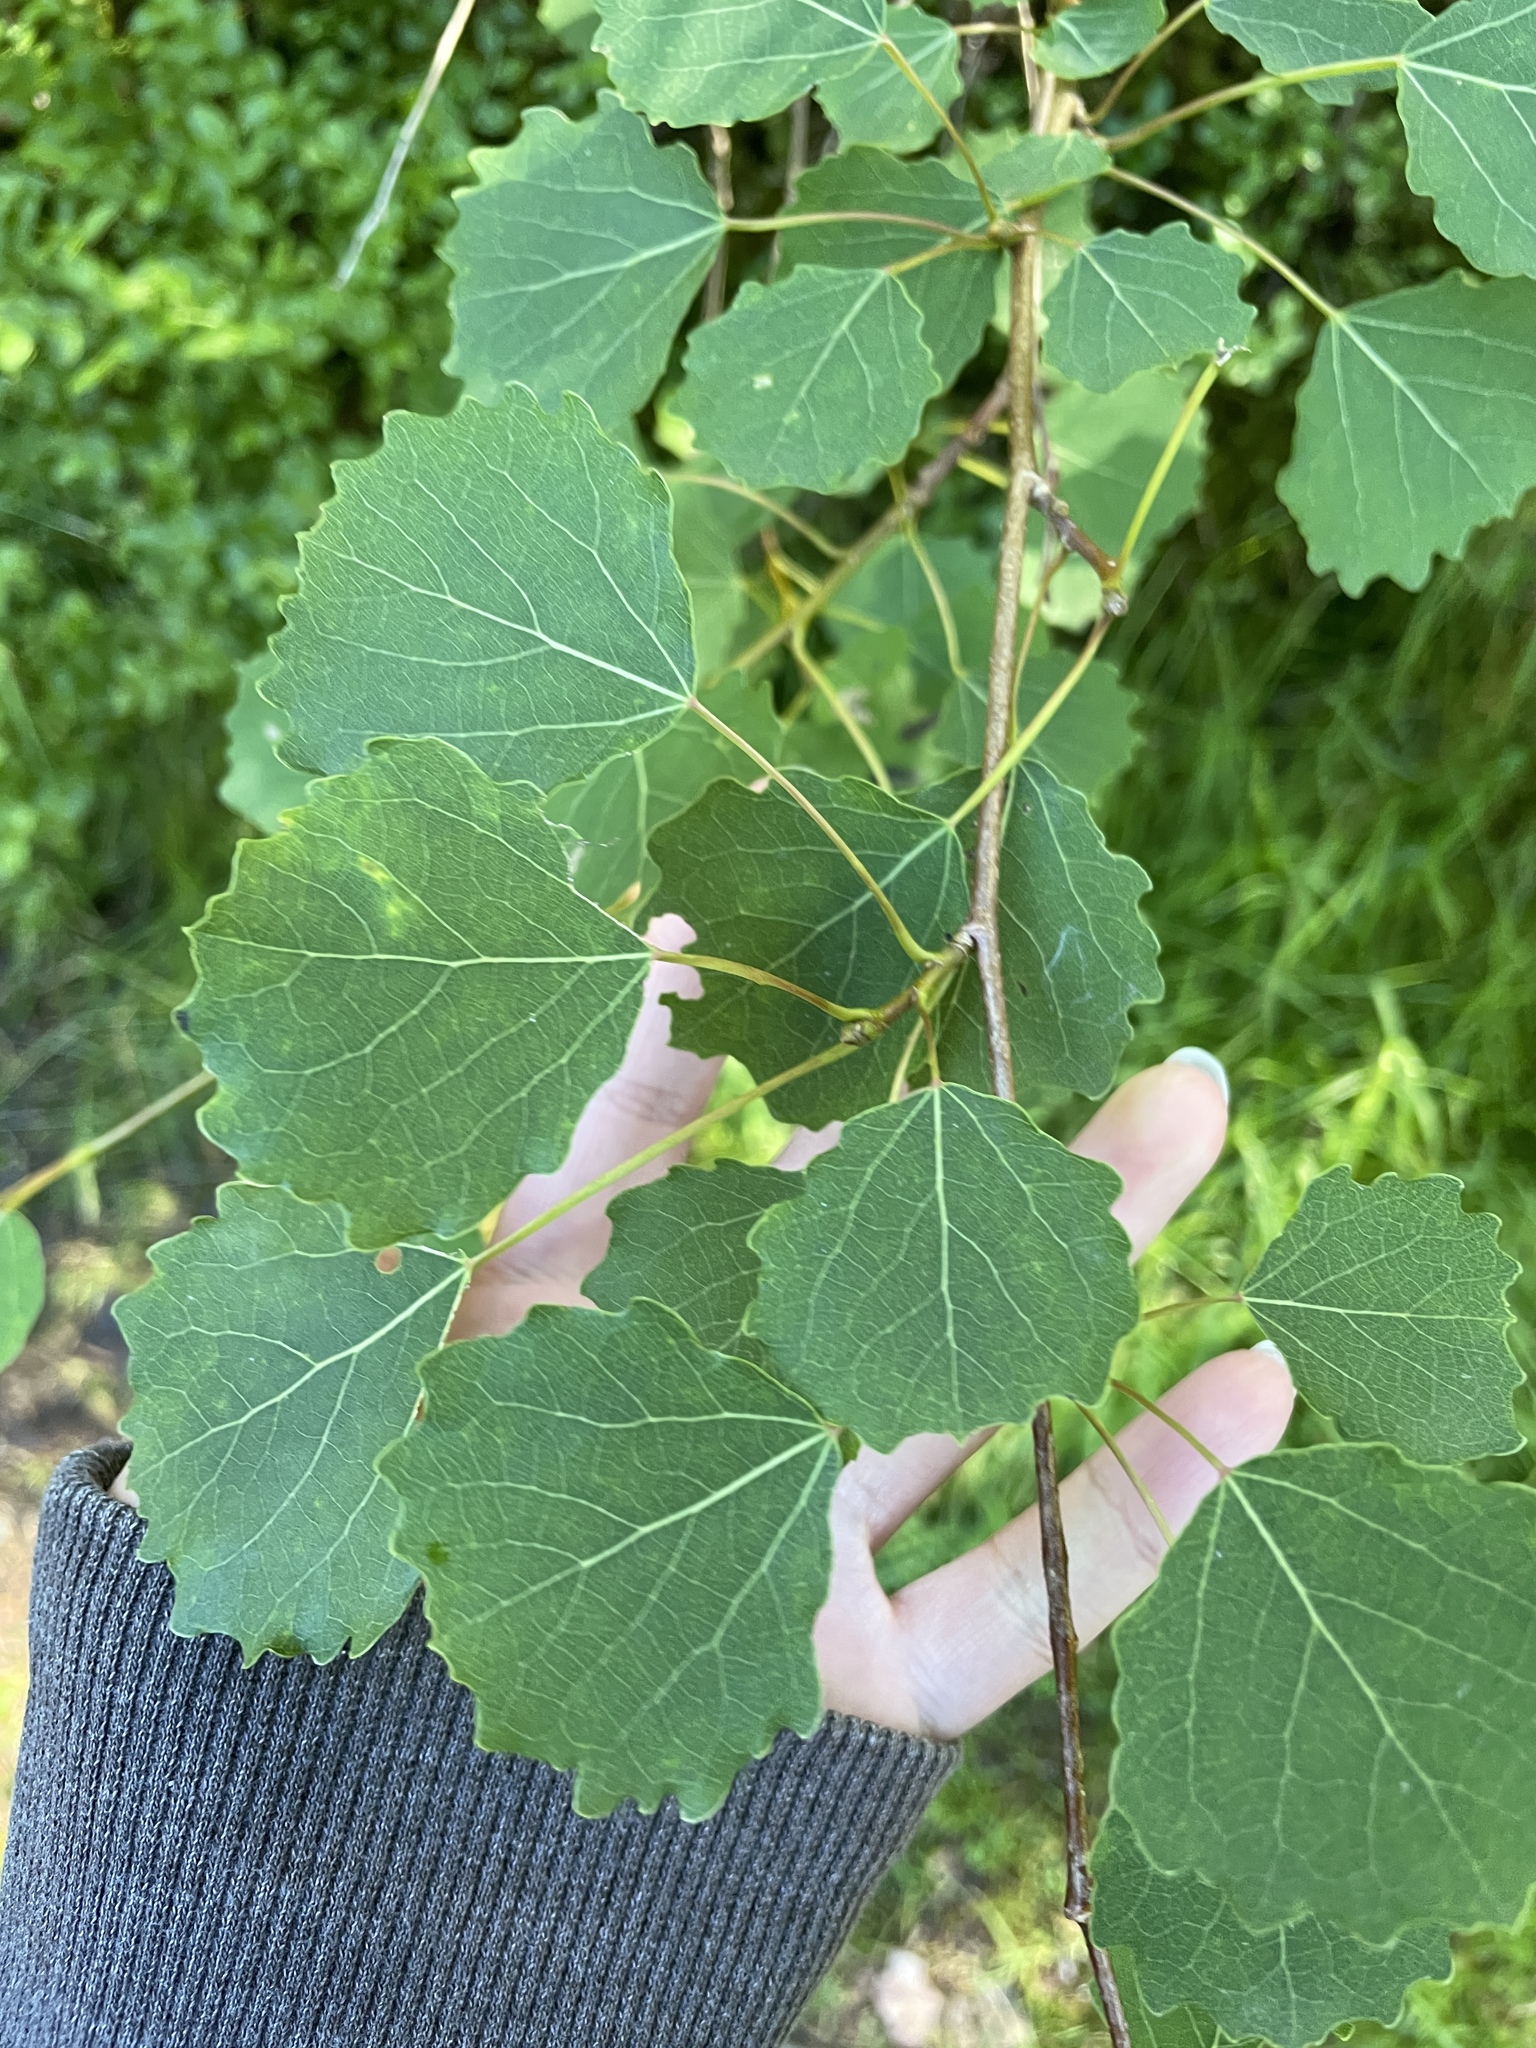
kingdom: Plantae
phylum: Tracheophyta
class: Magnoliopsida
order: Malpighiales
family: Salicaceae
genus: Populus
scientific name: Populus tremula
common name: European aspen
